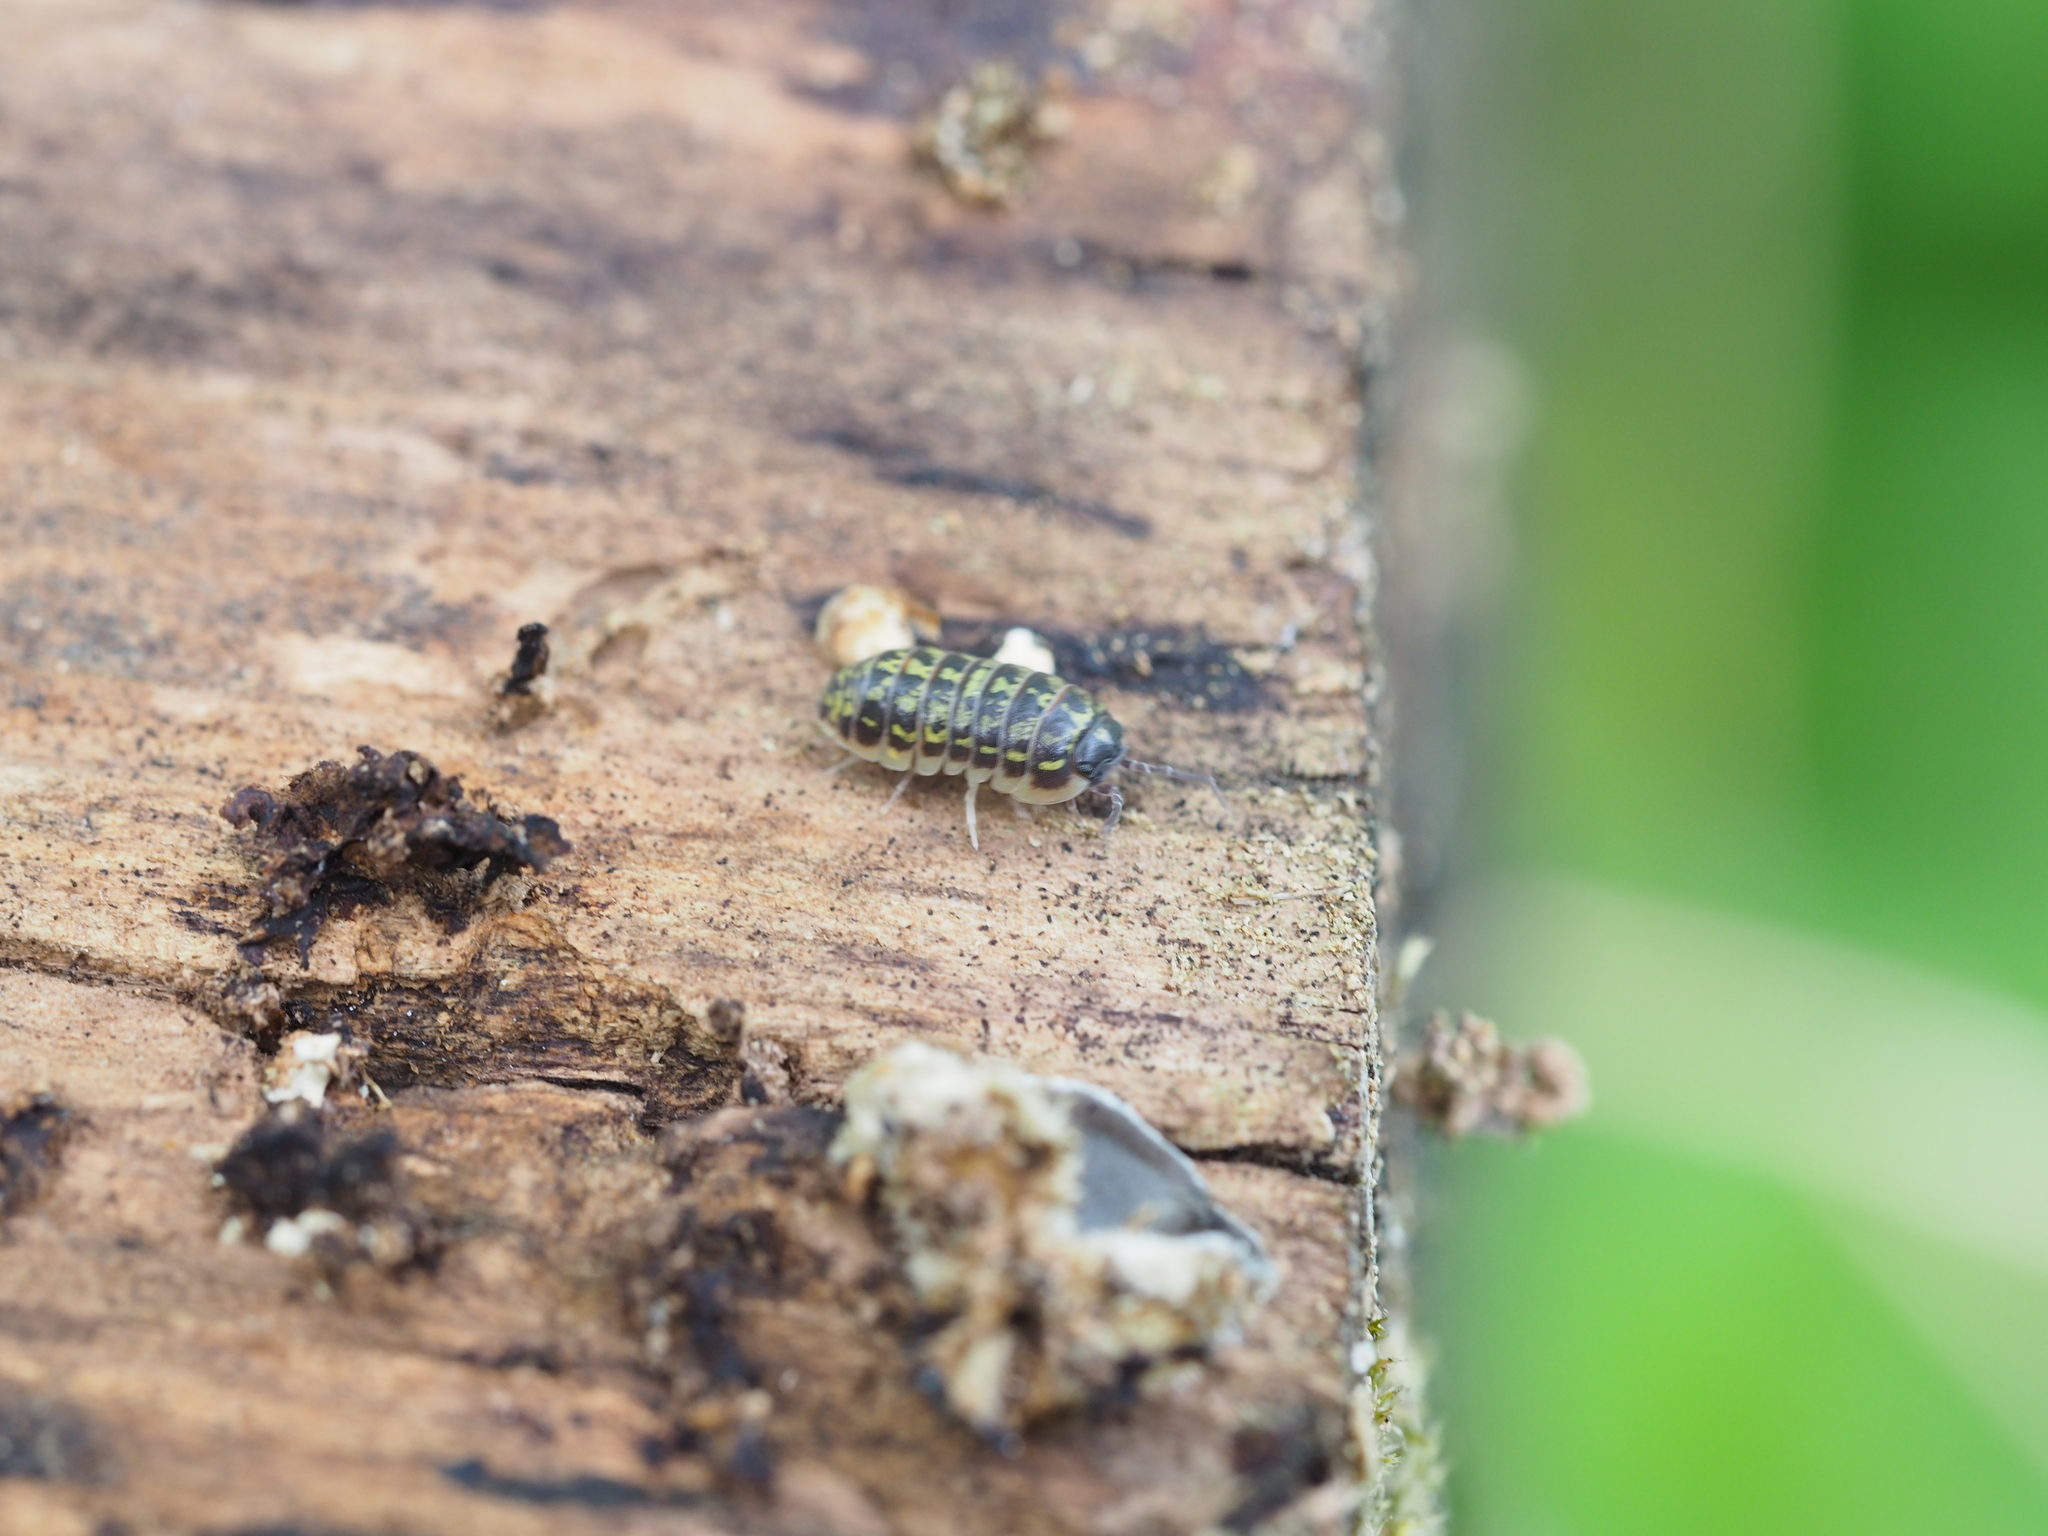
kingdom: Animalia
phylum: Arthropoda
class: Malacostraca
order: Isopoda
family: Armadillidiidae
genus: Armadillidium
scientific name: Armadillidium versicolor
